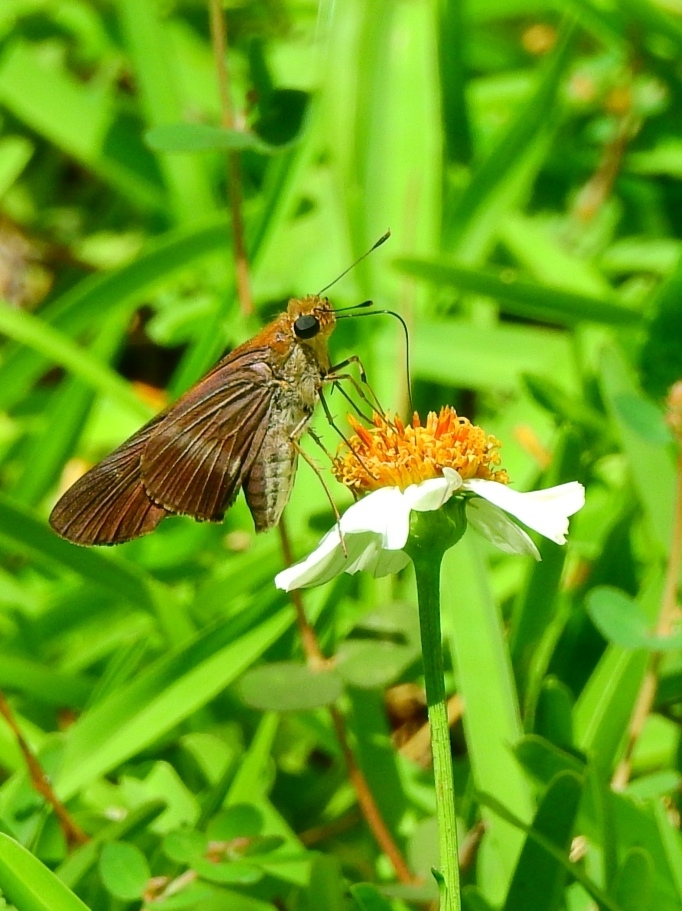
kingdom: Animalia
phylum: Arthropoda
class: Insecta
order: Lepidoptera
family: Hesperiidae
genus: Panoquina
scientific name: Panoquina fusina
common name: Evans' skipper
